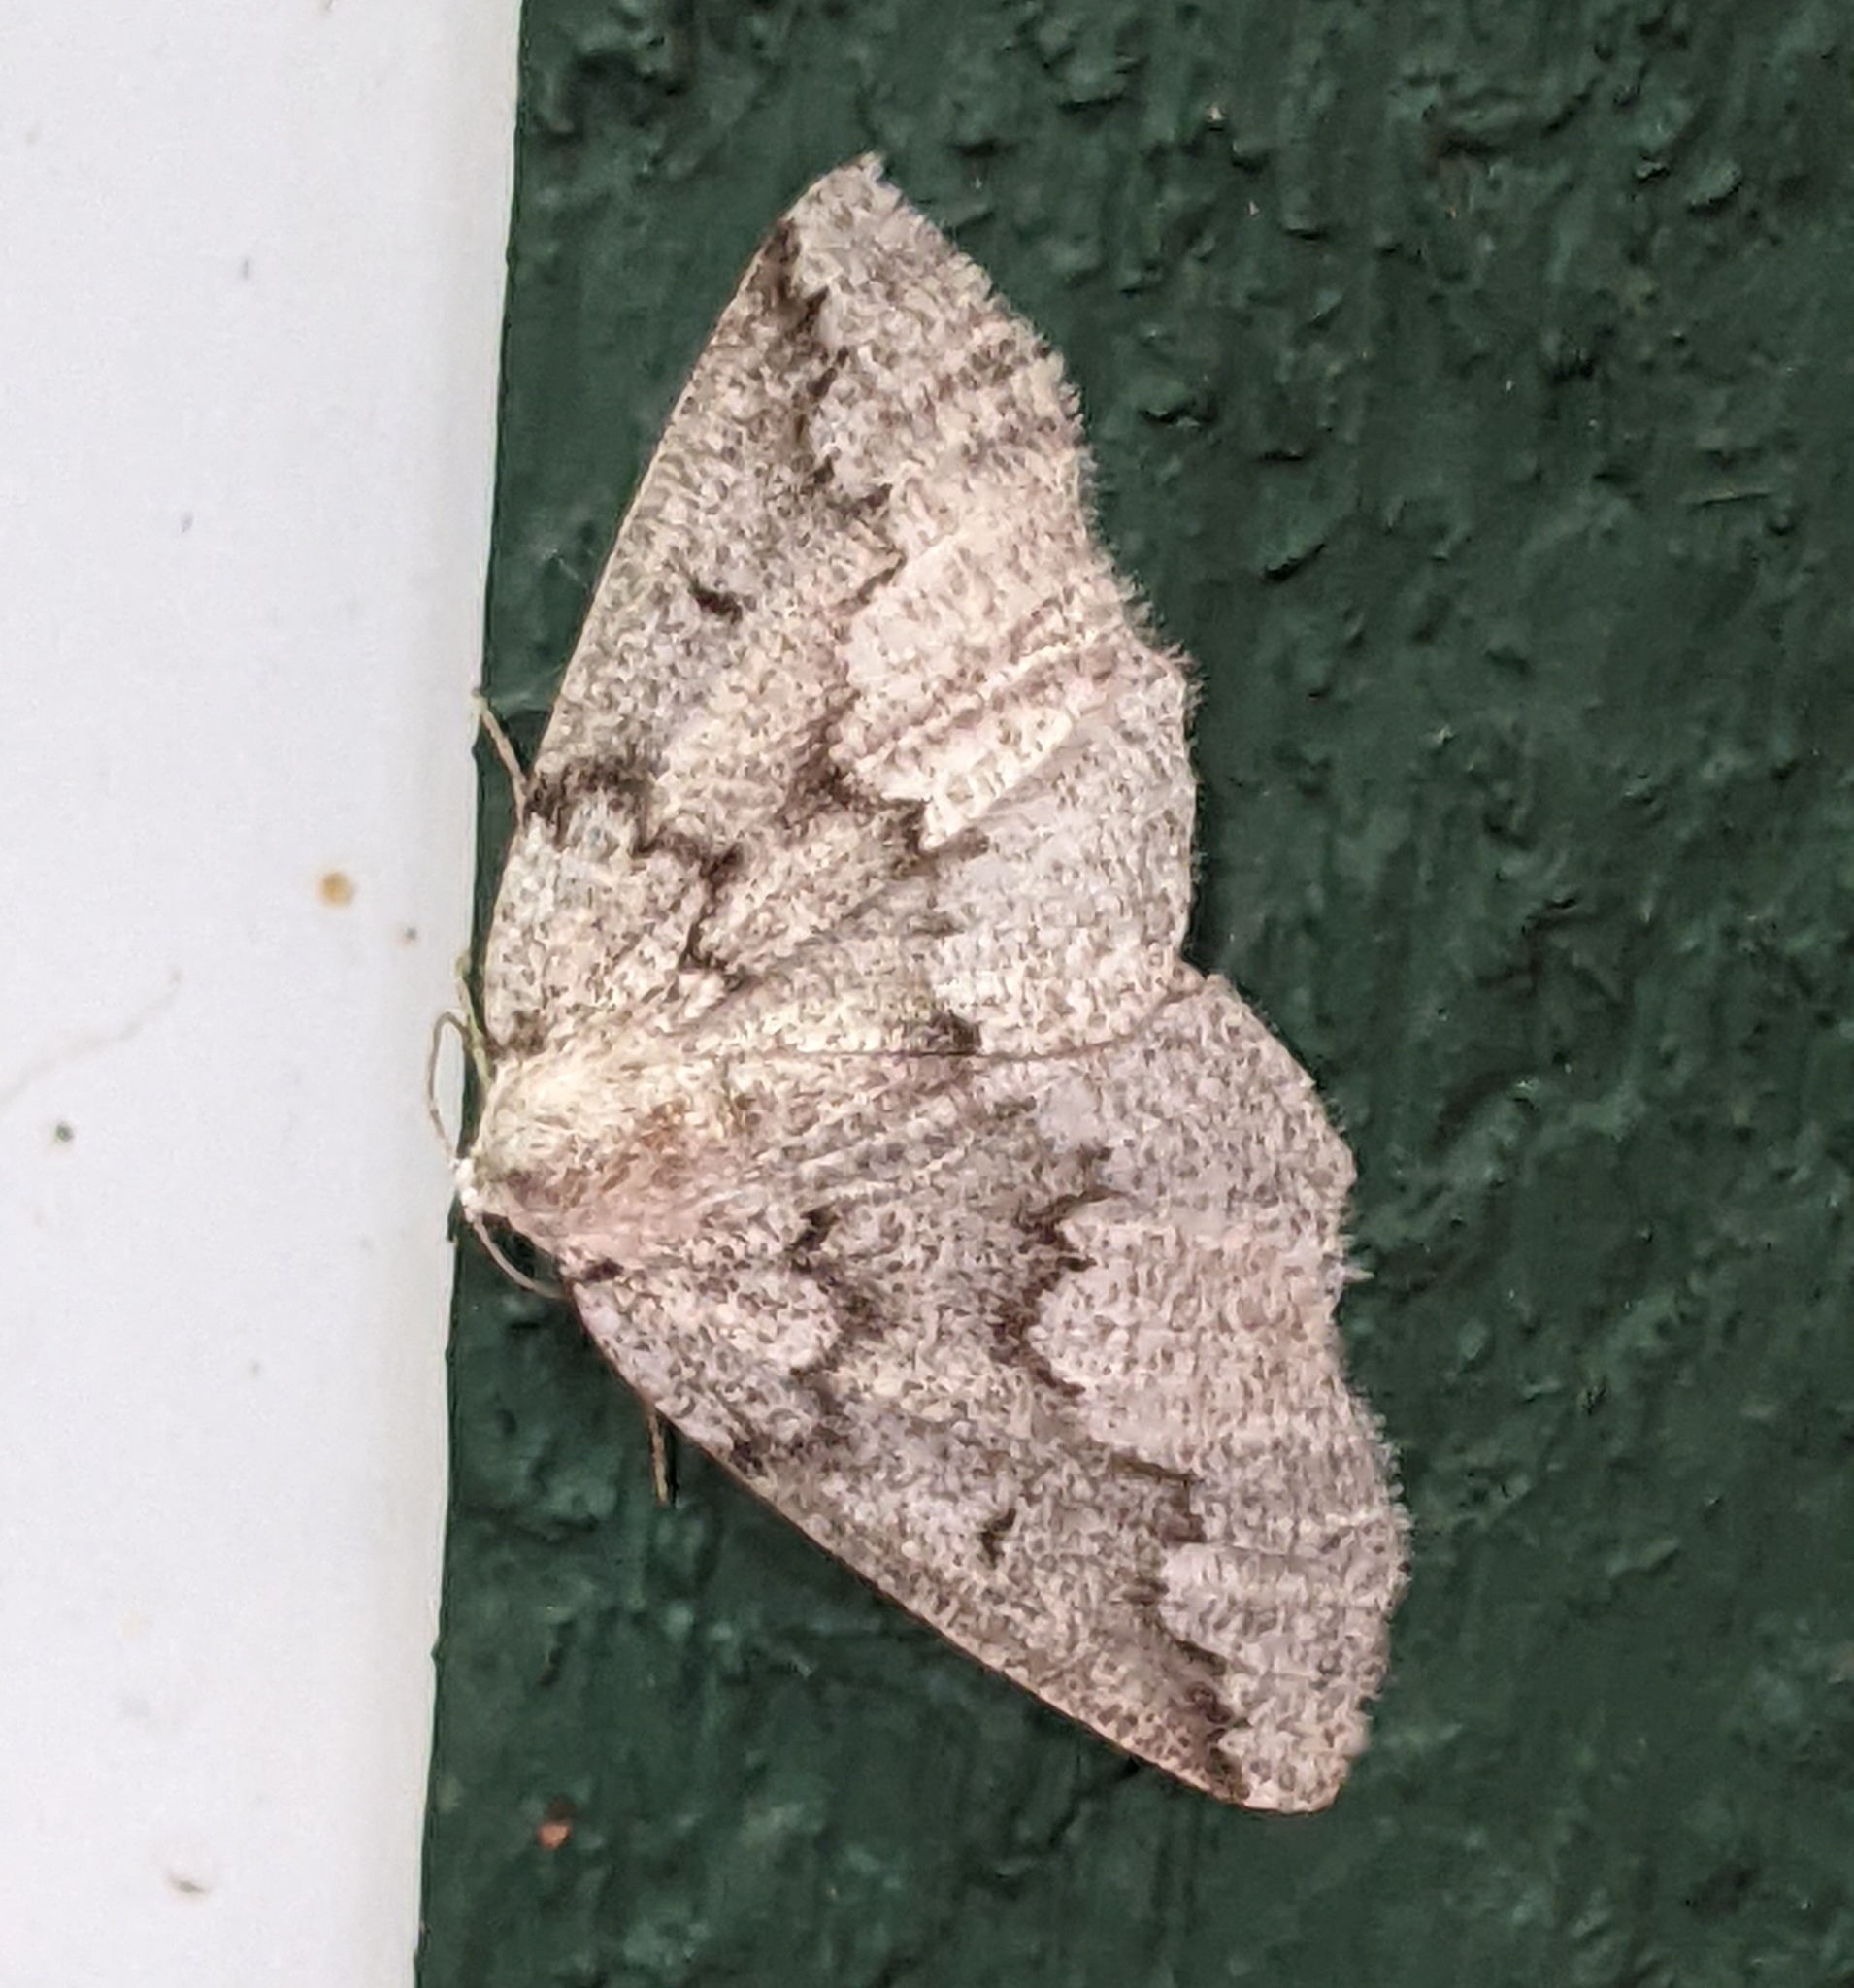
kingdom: Animalia
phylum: Arthropoda
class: Insecta
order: Lepidoptera
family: Geometridae
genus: Sabulodes
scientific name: Sabulodes
